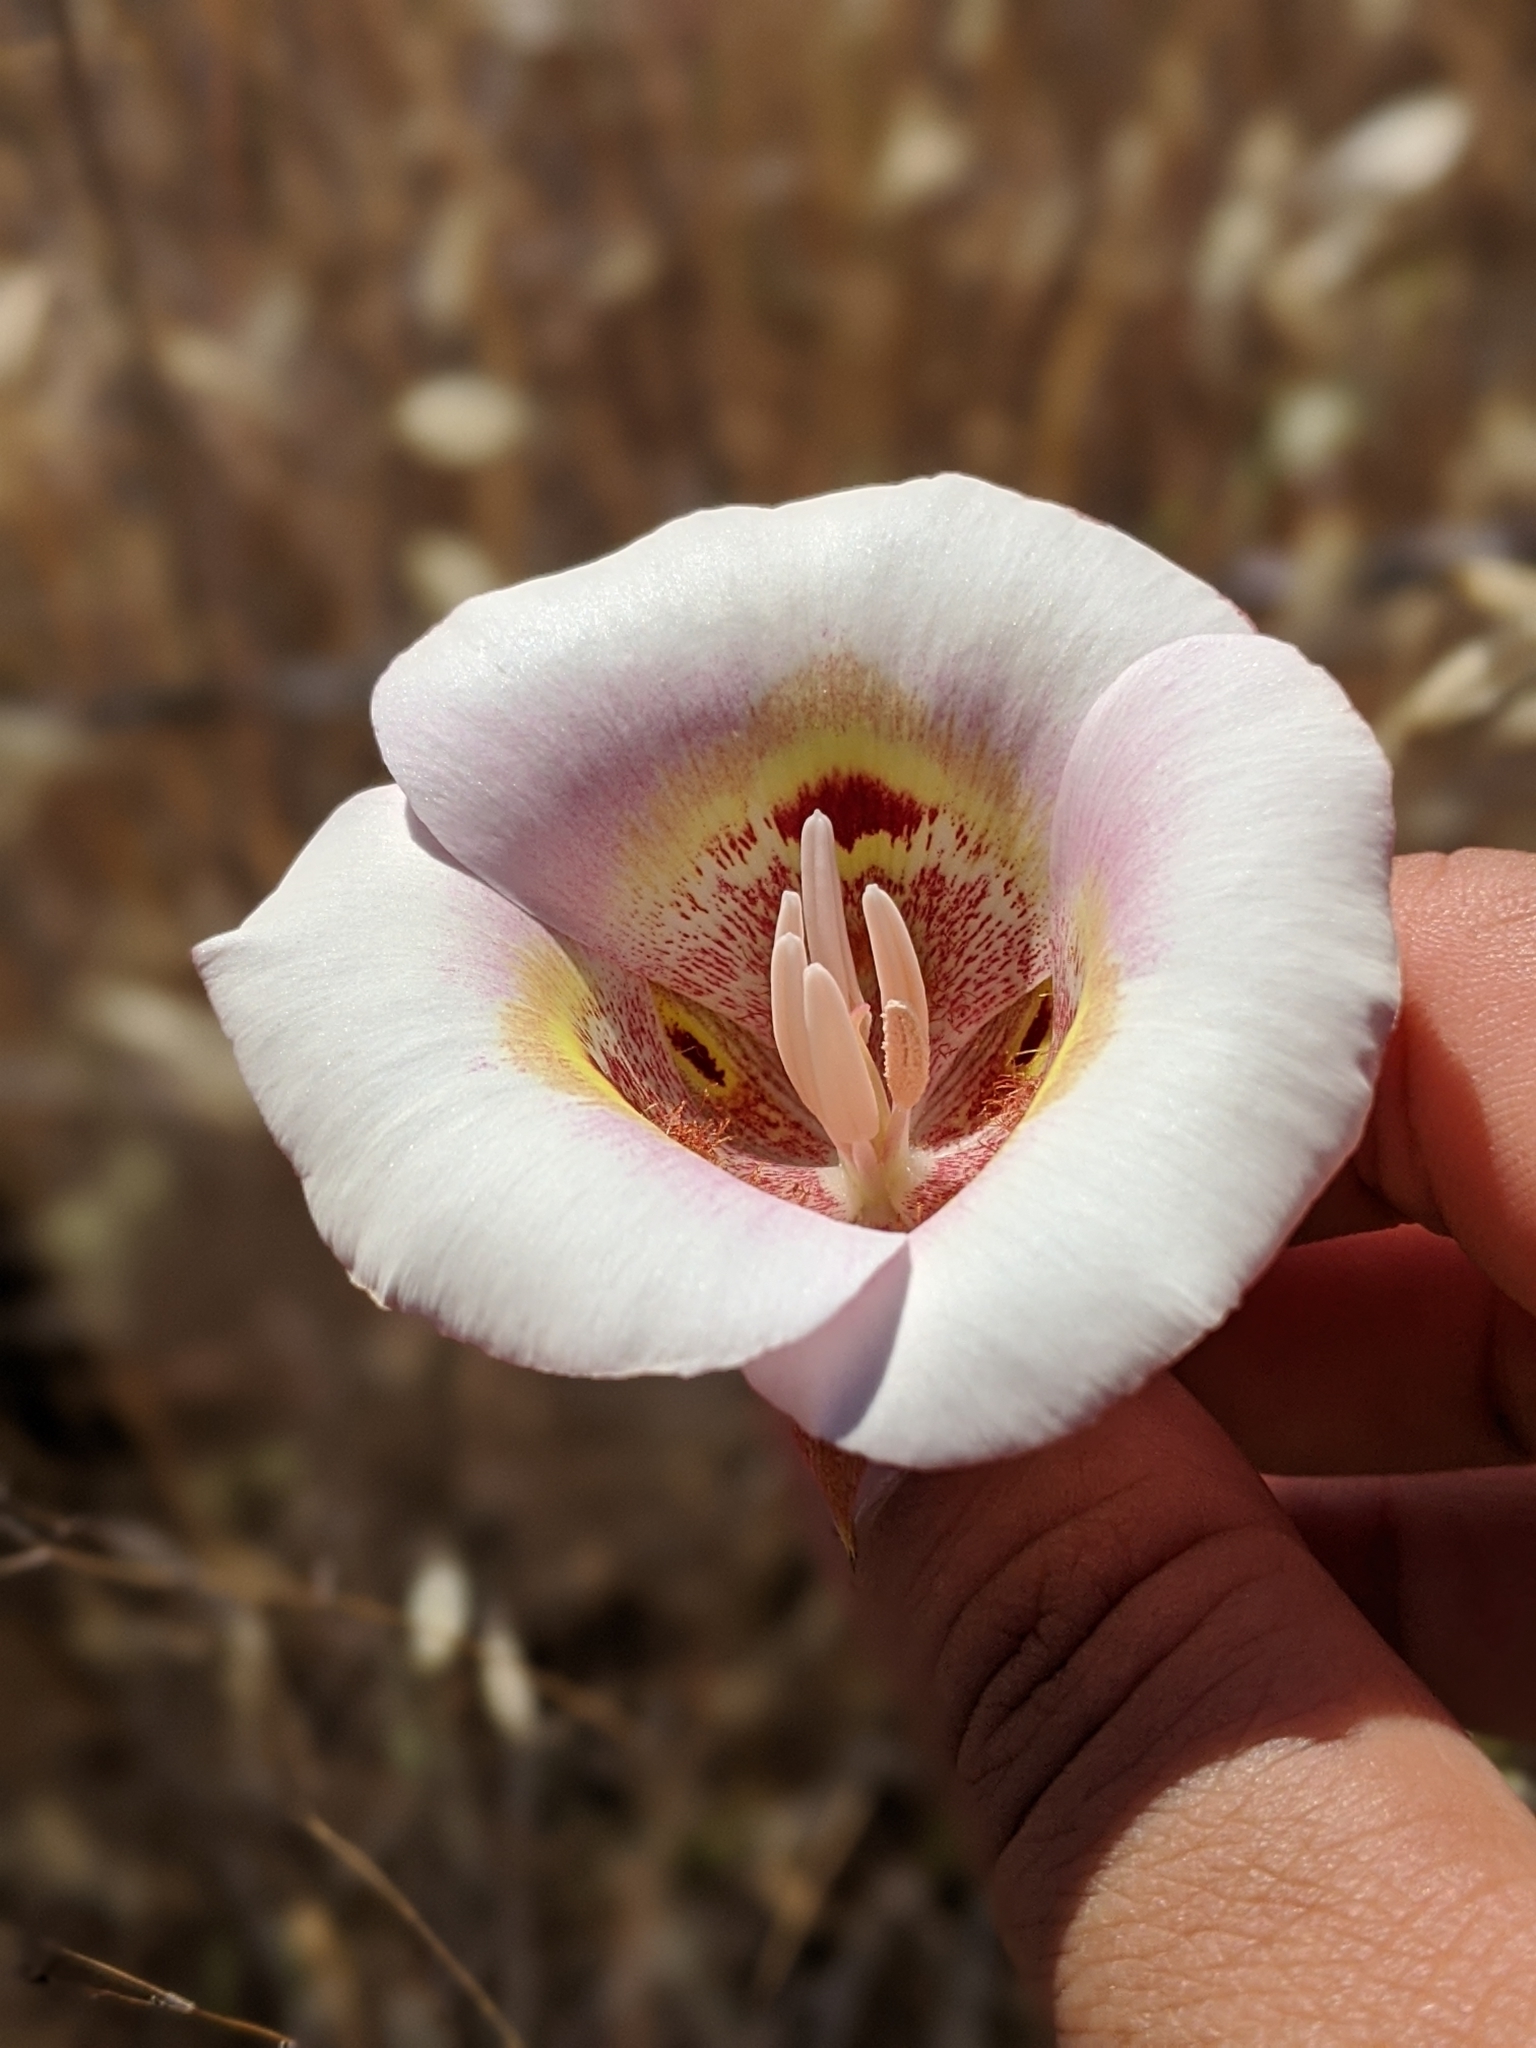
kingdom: Plantae
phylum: Tracheophyta
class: Liliopsida
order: Liliales
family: Liliaceae
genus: Calochortus
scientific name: Calochortus argillosus
